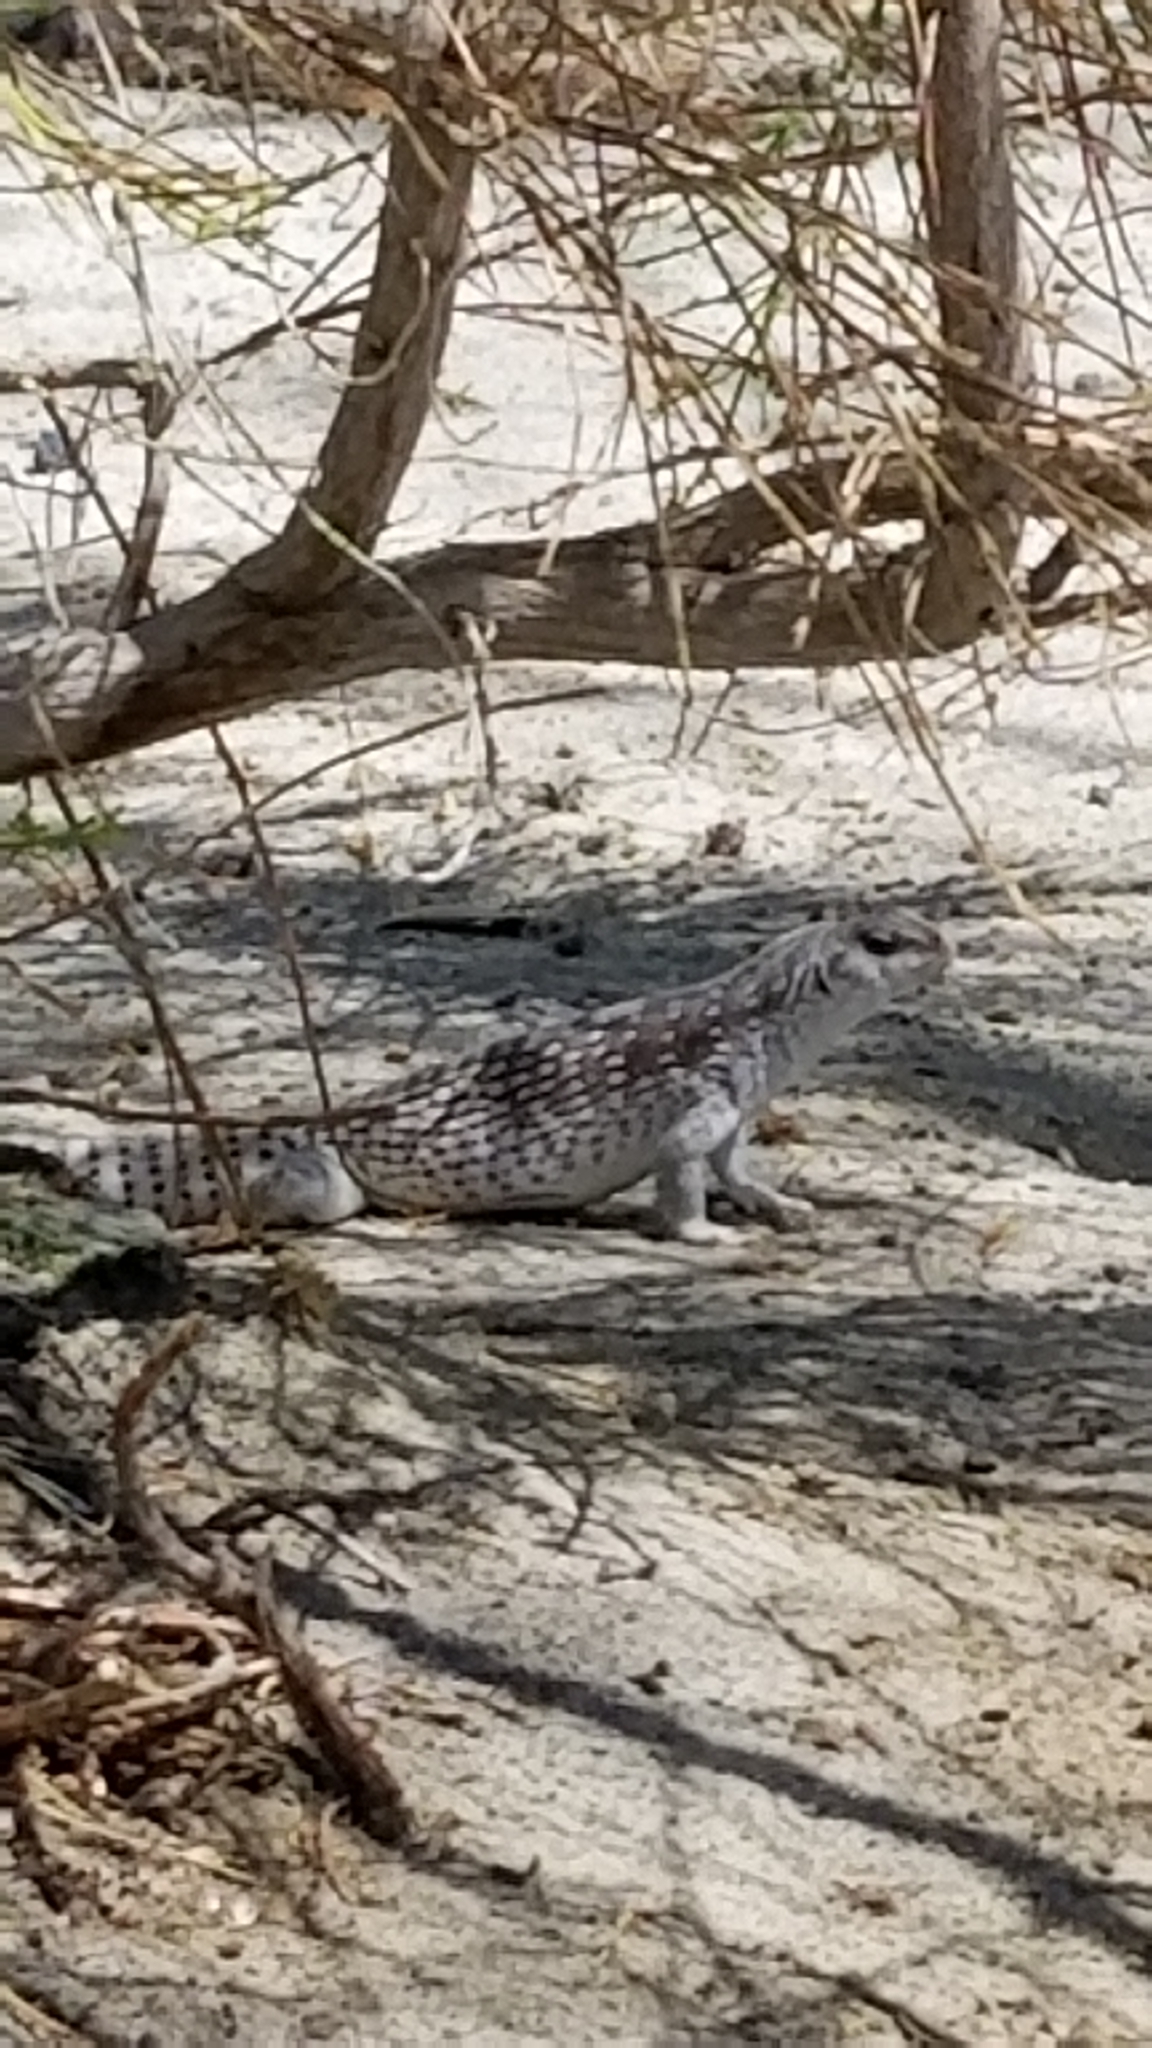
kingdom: Animalia
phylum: Chordata
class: Squamata
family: Iguanidae
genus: Dipsosaurus
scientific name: Dipsosaurus dorsalis
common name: Desert iguana
